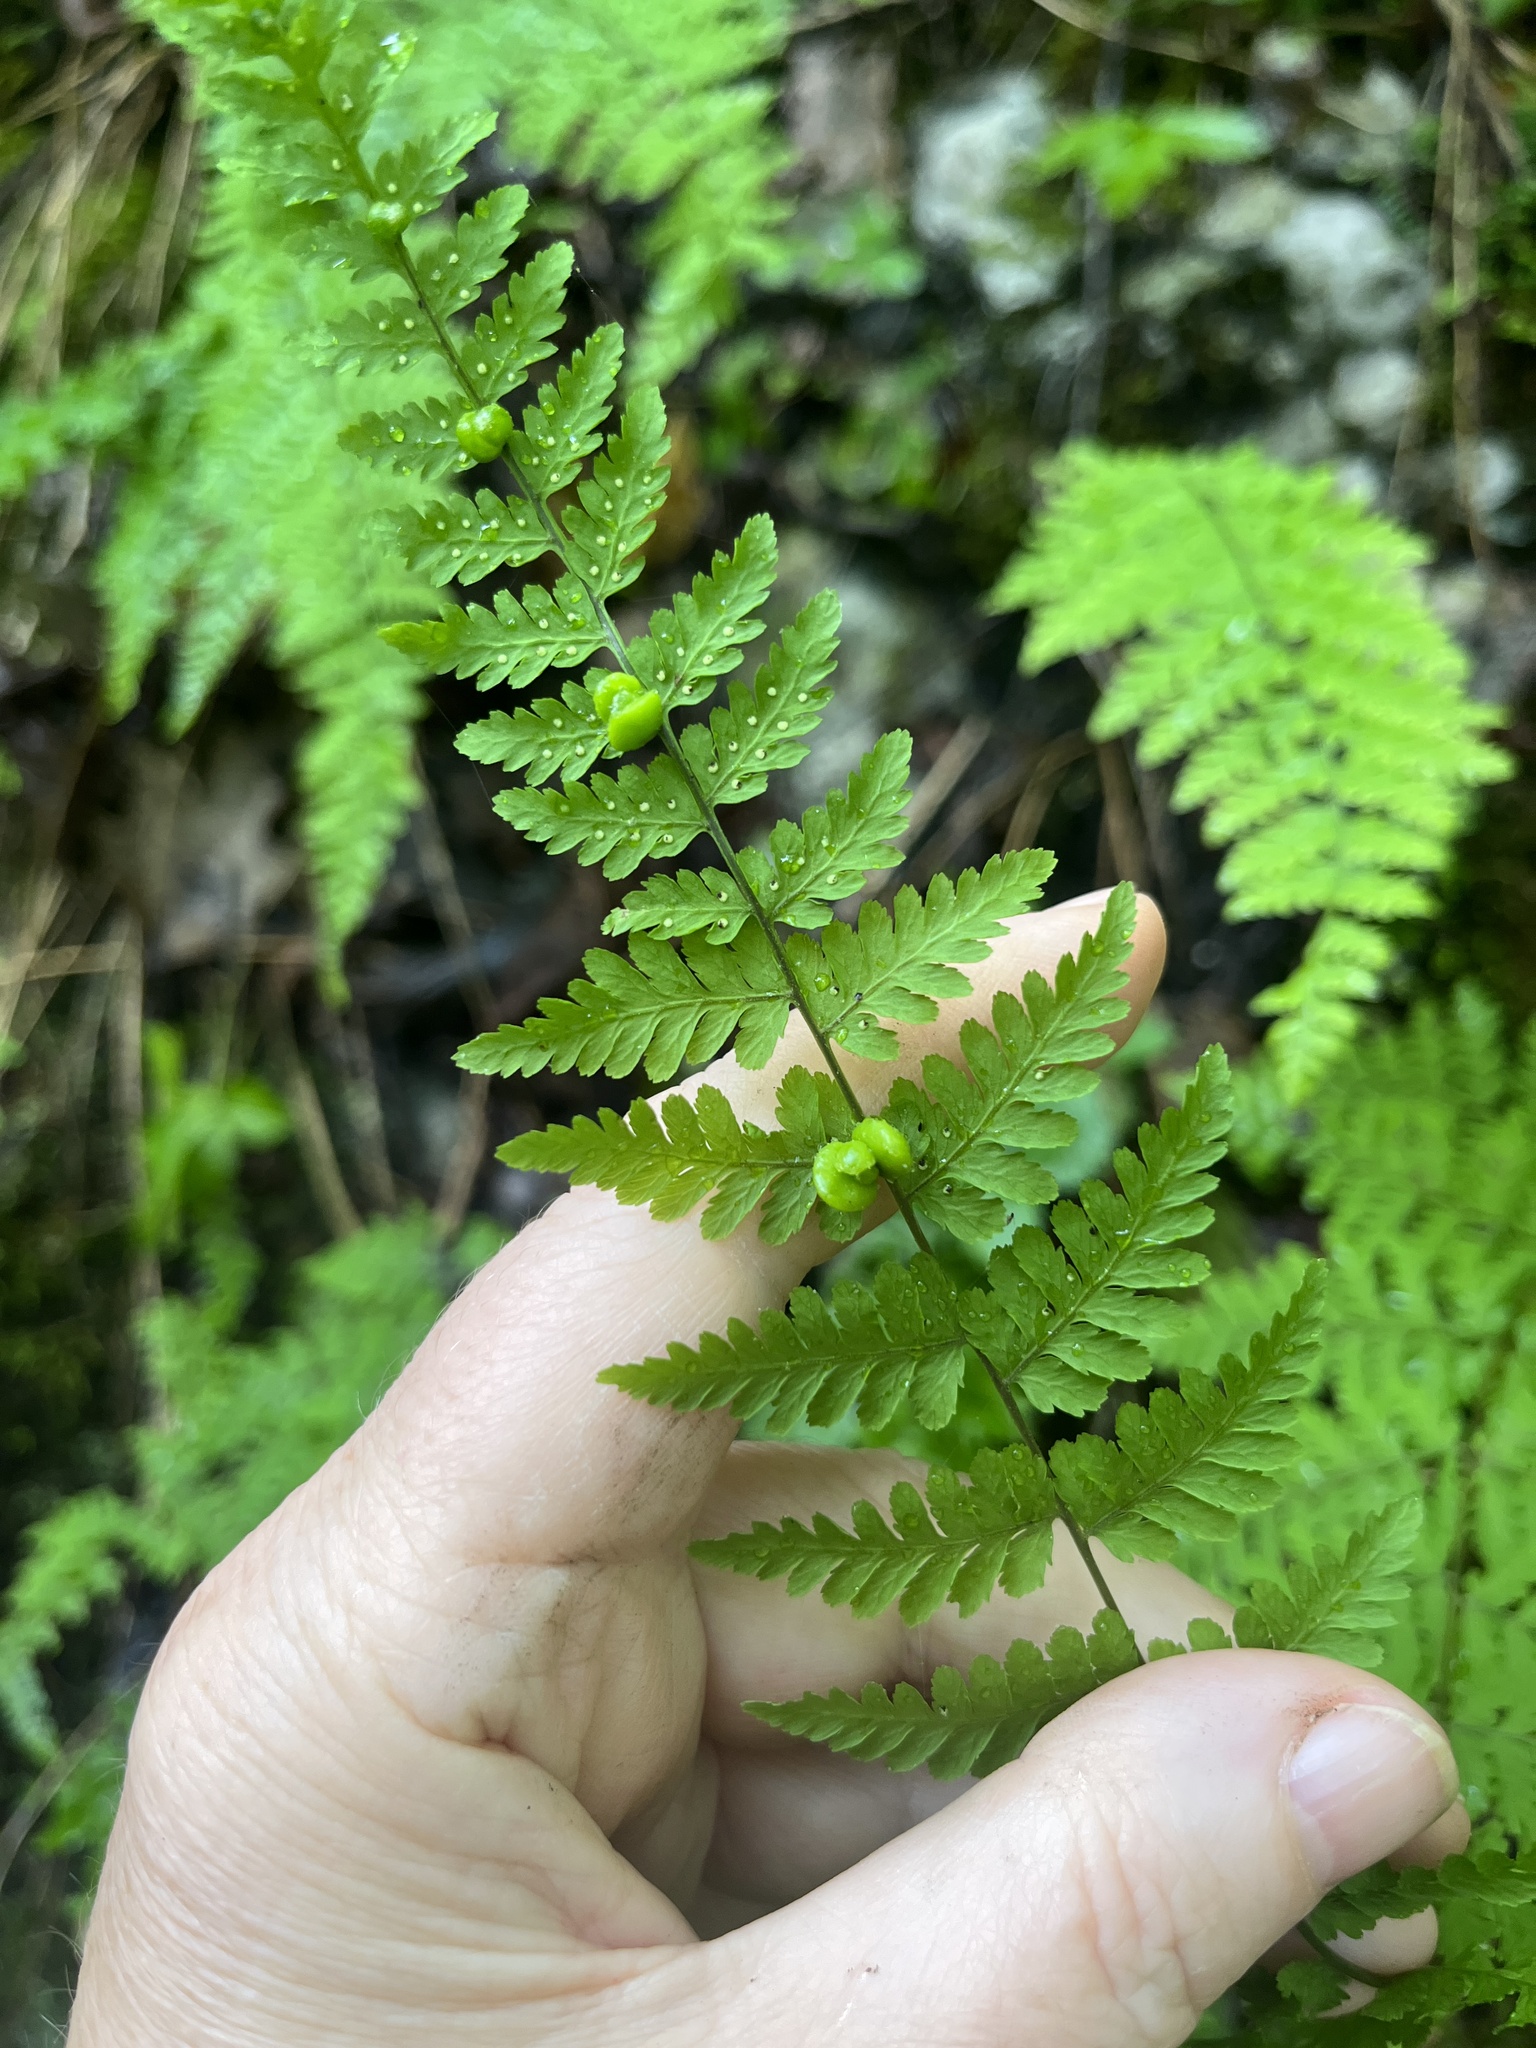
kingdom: Plantae
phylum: Tracheophyta
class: Polypodiopsida
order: Polypodiales
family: Cystopteridaceae
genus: Cystopteris
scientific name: Cystopteris bulbifera
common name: Bulblet bladder fern
